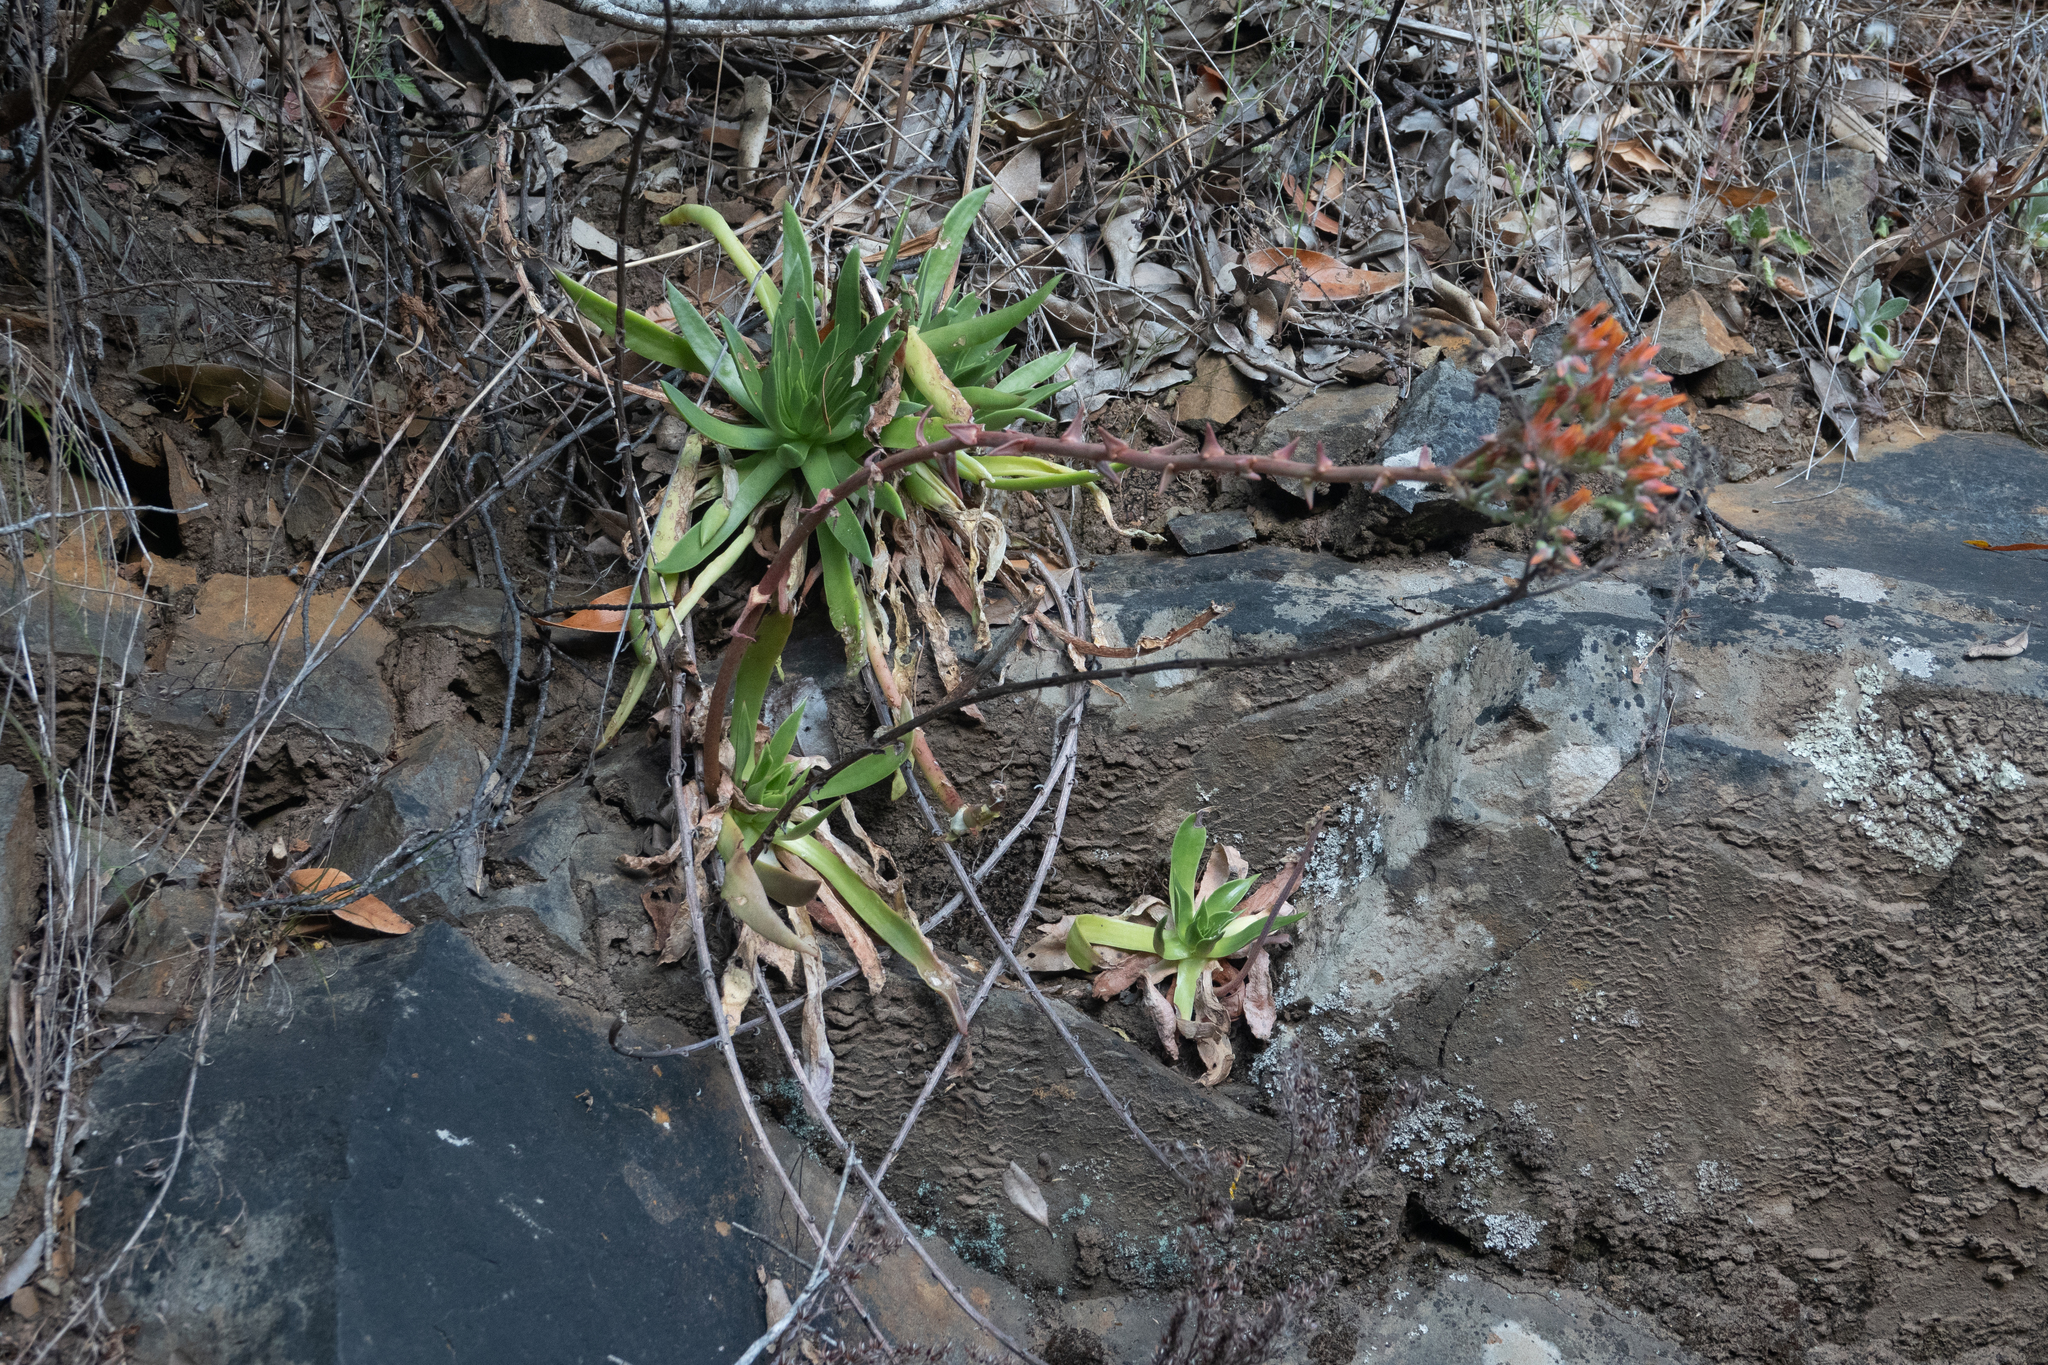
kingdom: Plantae
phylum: Tracheophyta
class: Magnoliopsida
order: Saxifragales
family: Crassulaceae
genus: Dudleya
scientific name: Dudleya lanceolata
